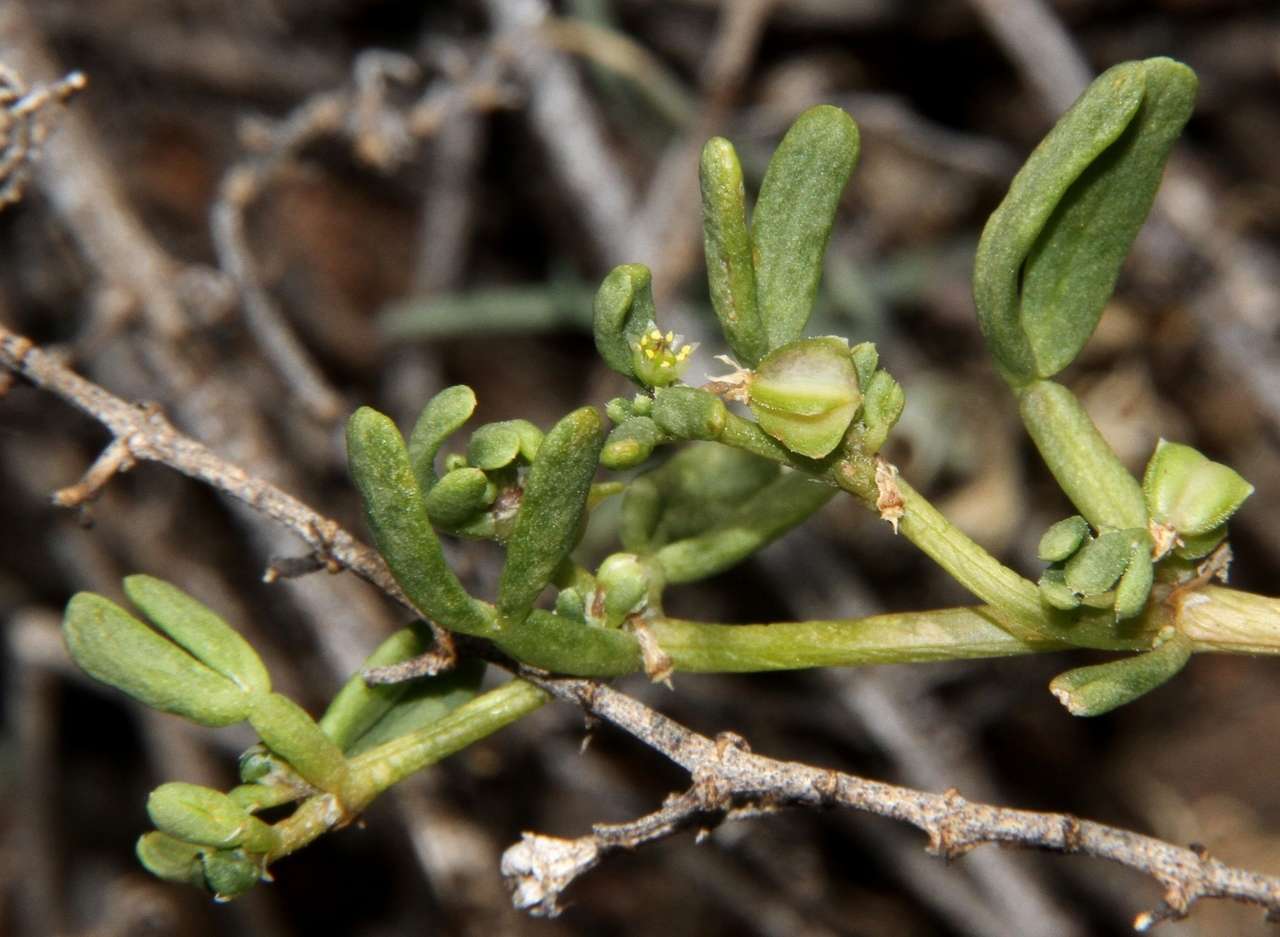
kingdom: Plantae
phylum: Tracheophyta
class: Magnoliopsida
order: Zygophyllales
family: Zygophyllaceae
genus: Roepera
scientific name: Roepera similis
